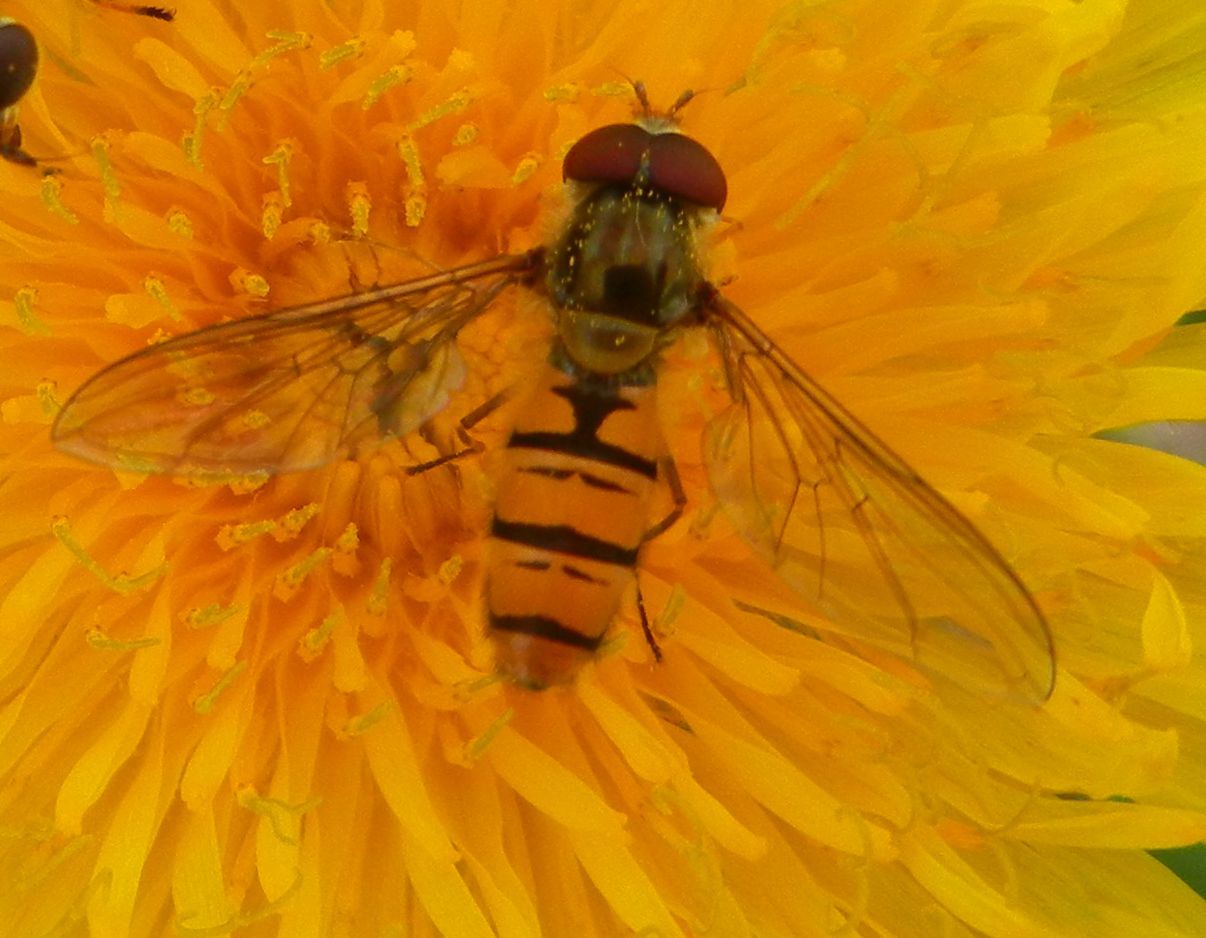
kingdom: Animalia
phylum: Arthropoda
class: Insecta
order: Diptera
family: Syrphidae
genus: Episyrphus
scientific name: Episyrphus balteatus
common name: Marmalade hoverfly
